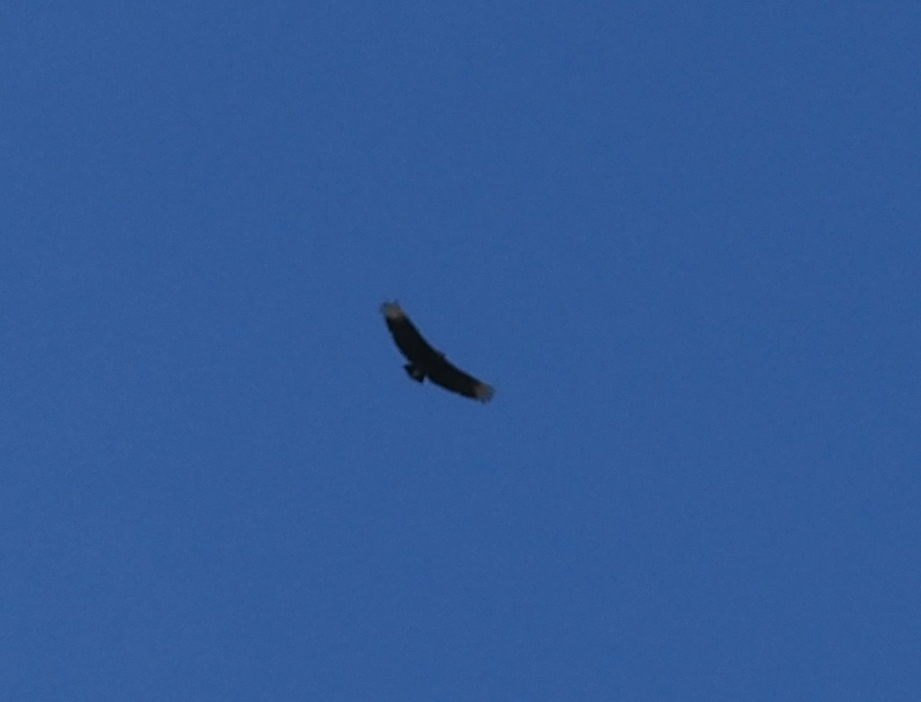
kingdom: Animalia
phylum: Chordata
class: Aves
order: Accipitriformes
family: Cathartidae
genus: Coragyps
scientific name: Coragyps atratus
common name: Black vulture
